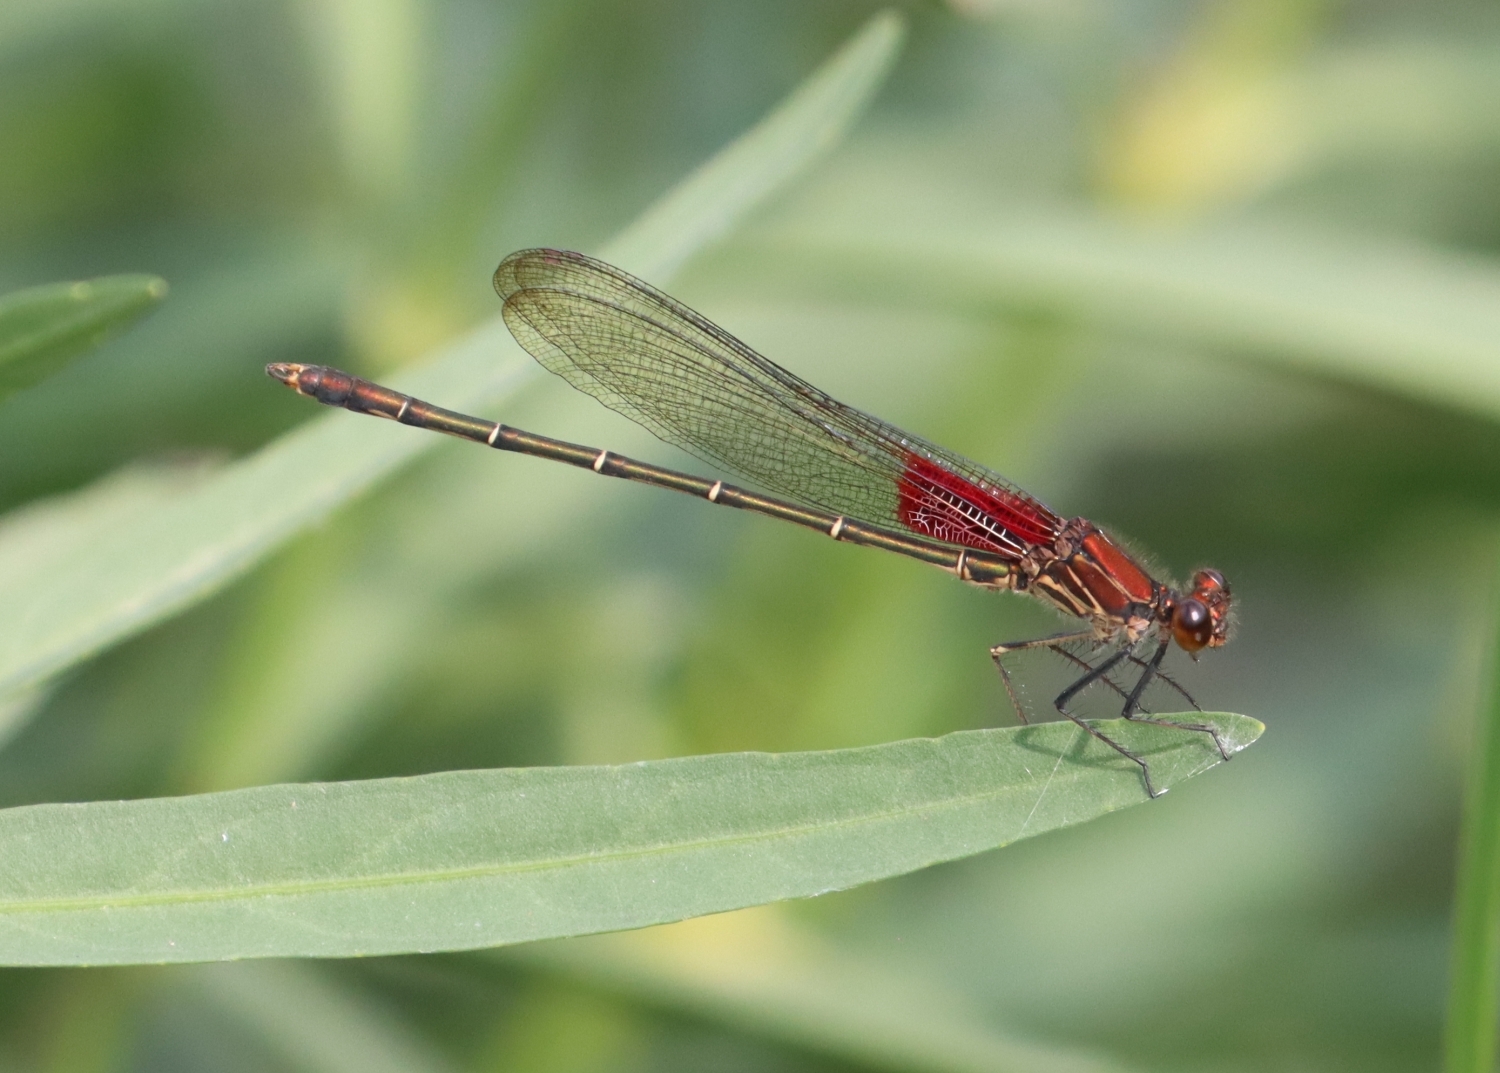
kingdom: Animalia
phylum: Arthropoda
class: Insecta
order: Odonata
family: Calopterygidae
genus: Hetaerina
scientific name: Hetaerina americana
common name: American rubyspot
